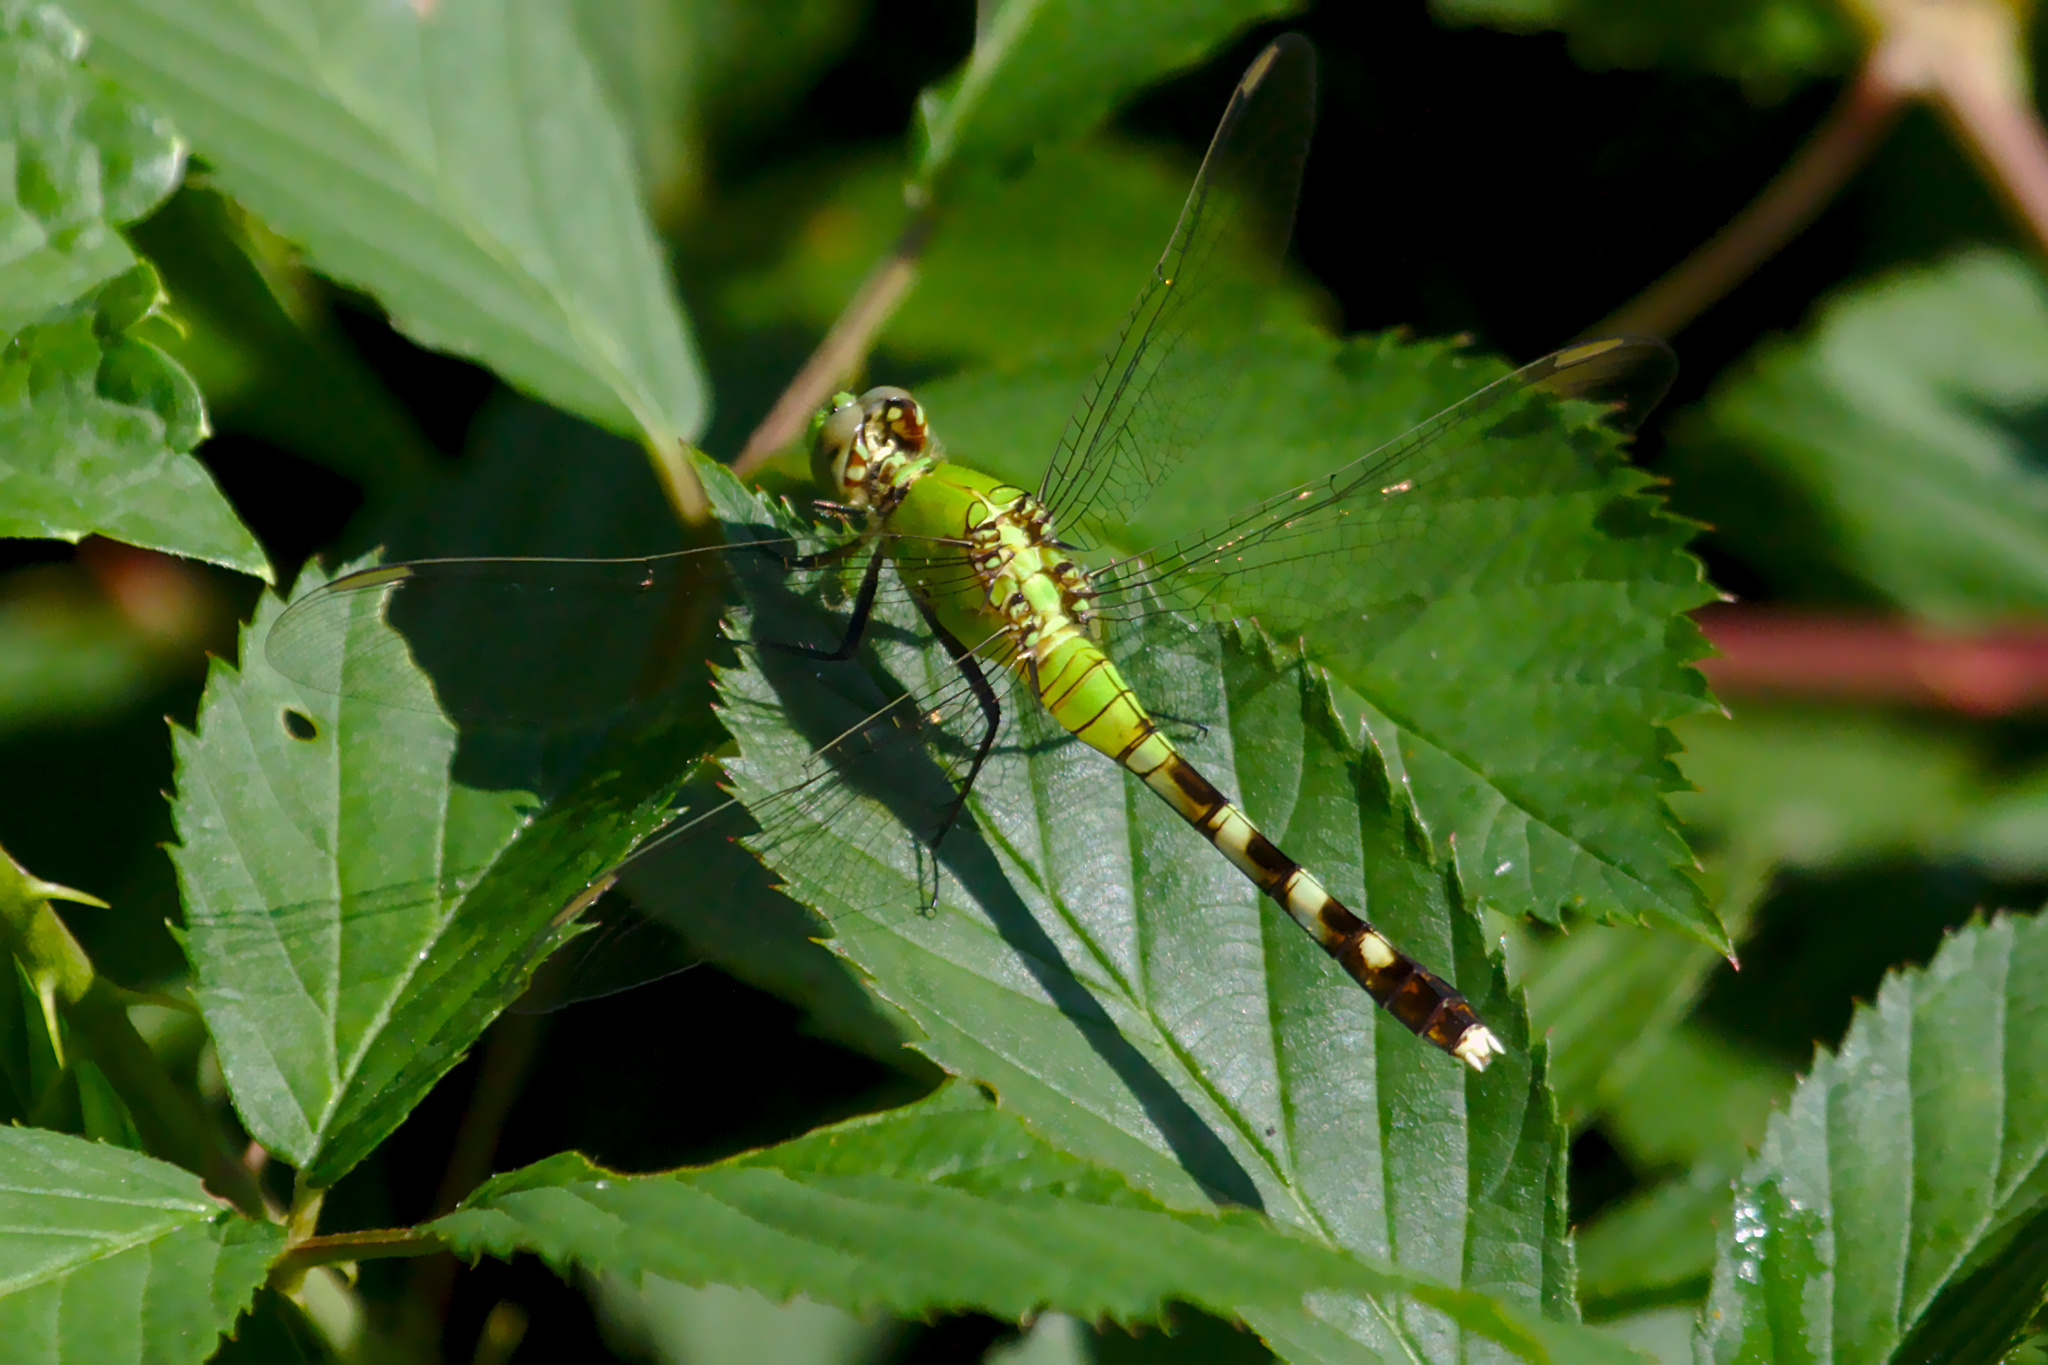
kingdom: Animalia
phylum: Arthropoda
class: Insecta
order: Odonata
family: Libellulidae
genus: Erythemis
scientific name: Erythemis simplicicollis
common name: Eastern pondhawk
